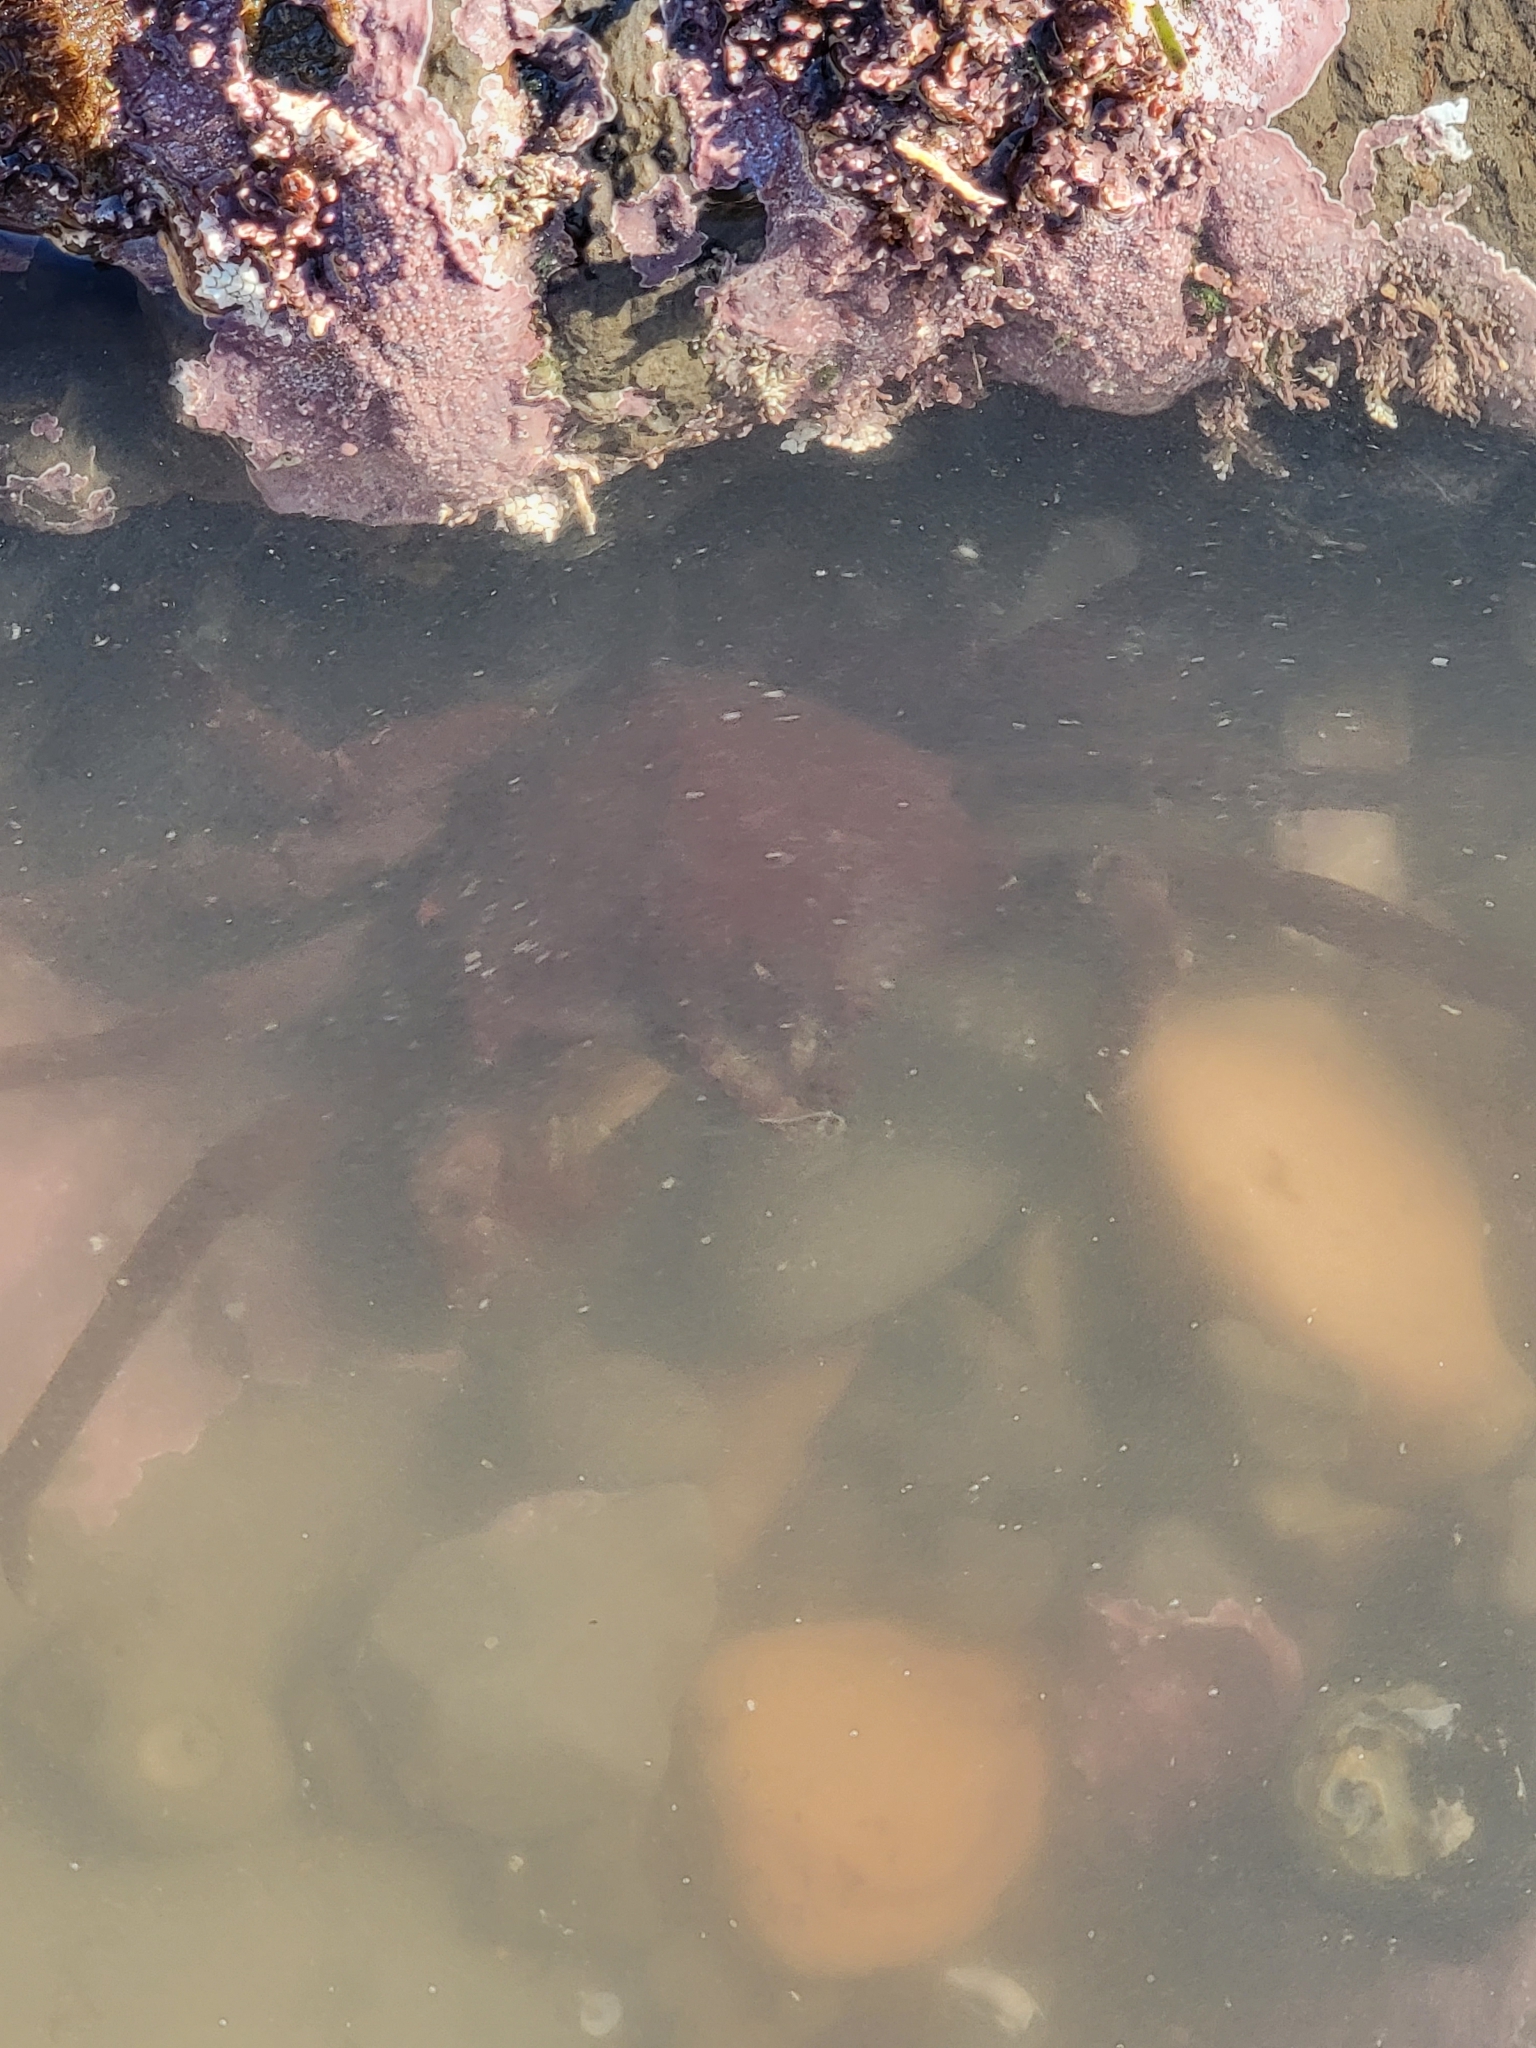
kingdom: Animalia
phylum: Arthropoda
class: Malacostraca
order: Decapoda
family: Epialtidae
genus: Pugettia
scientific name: Pugettia producta
